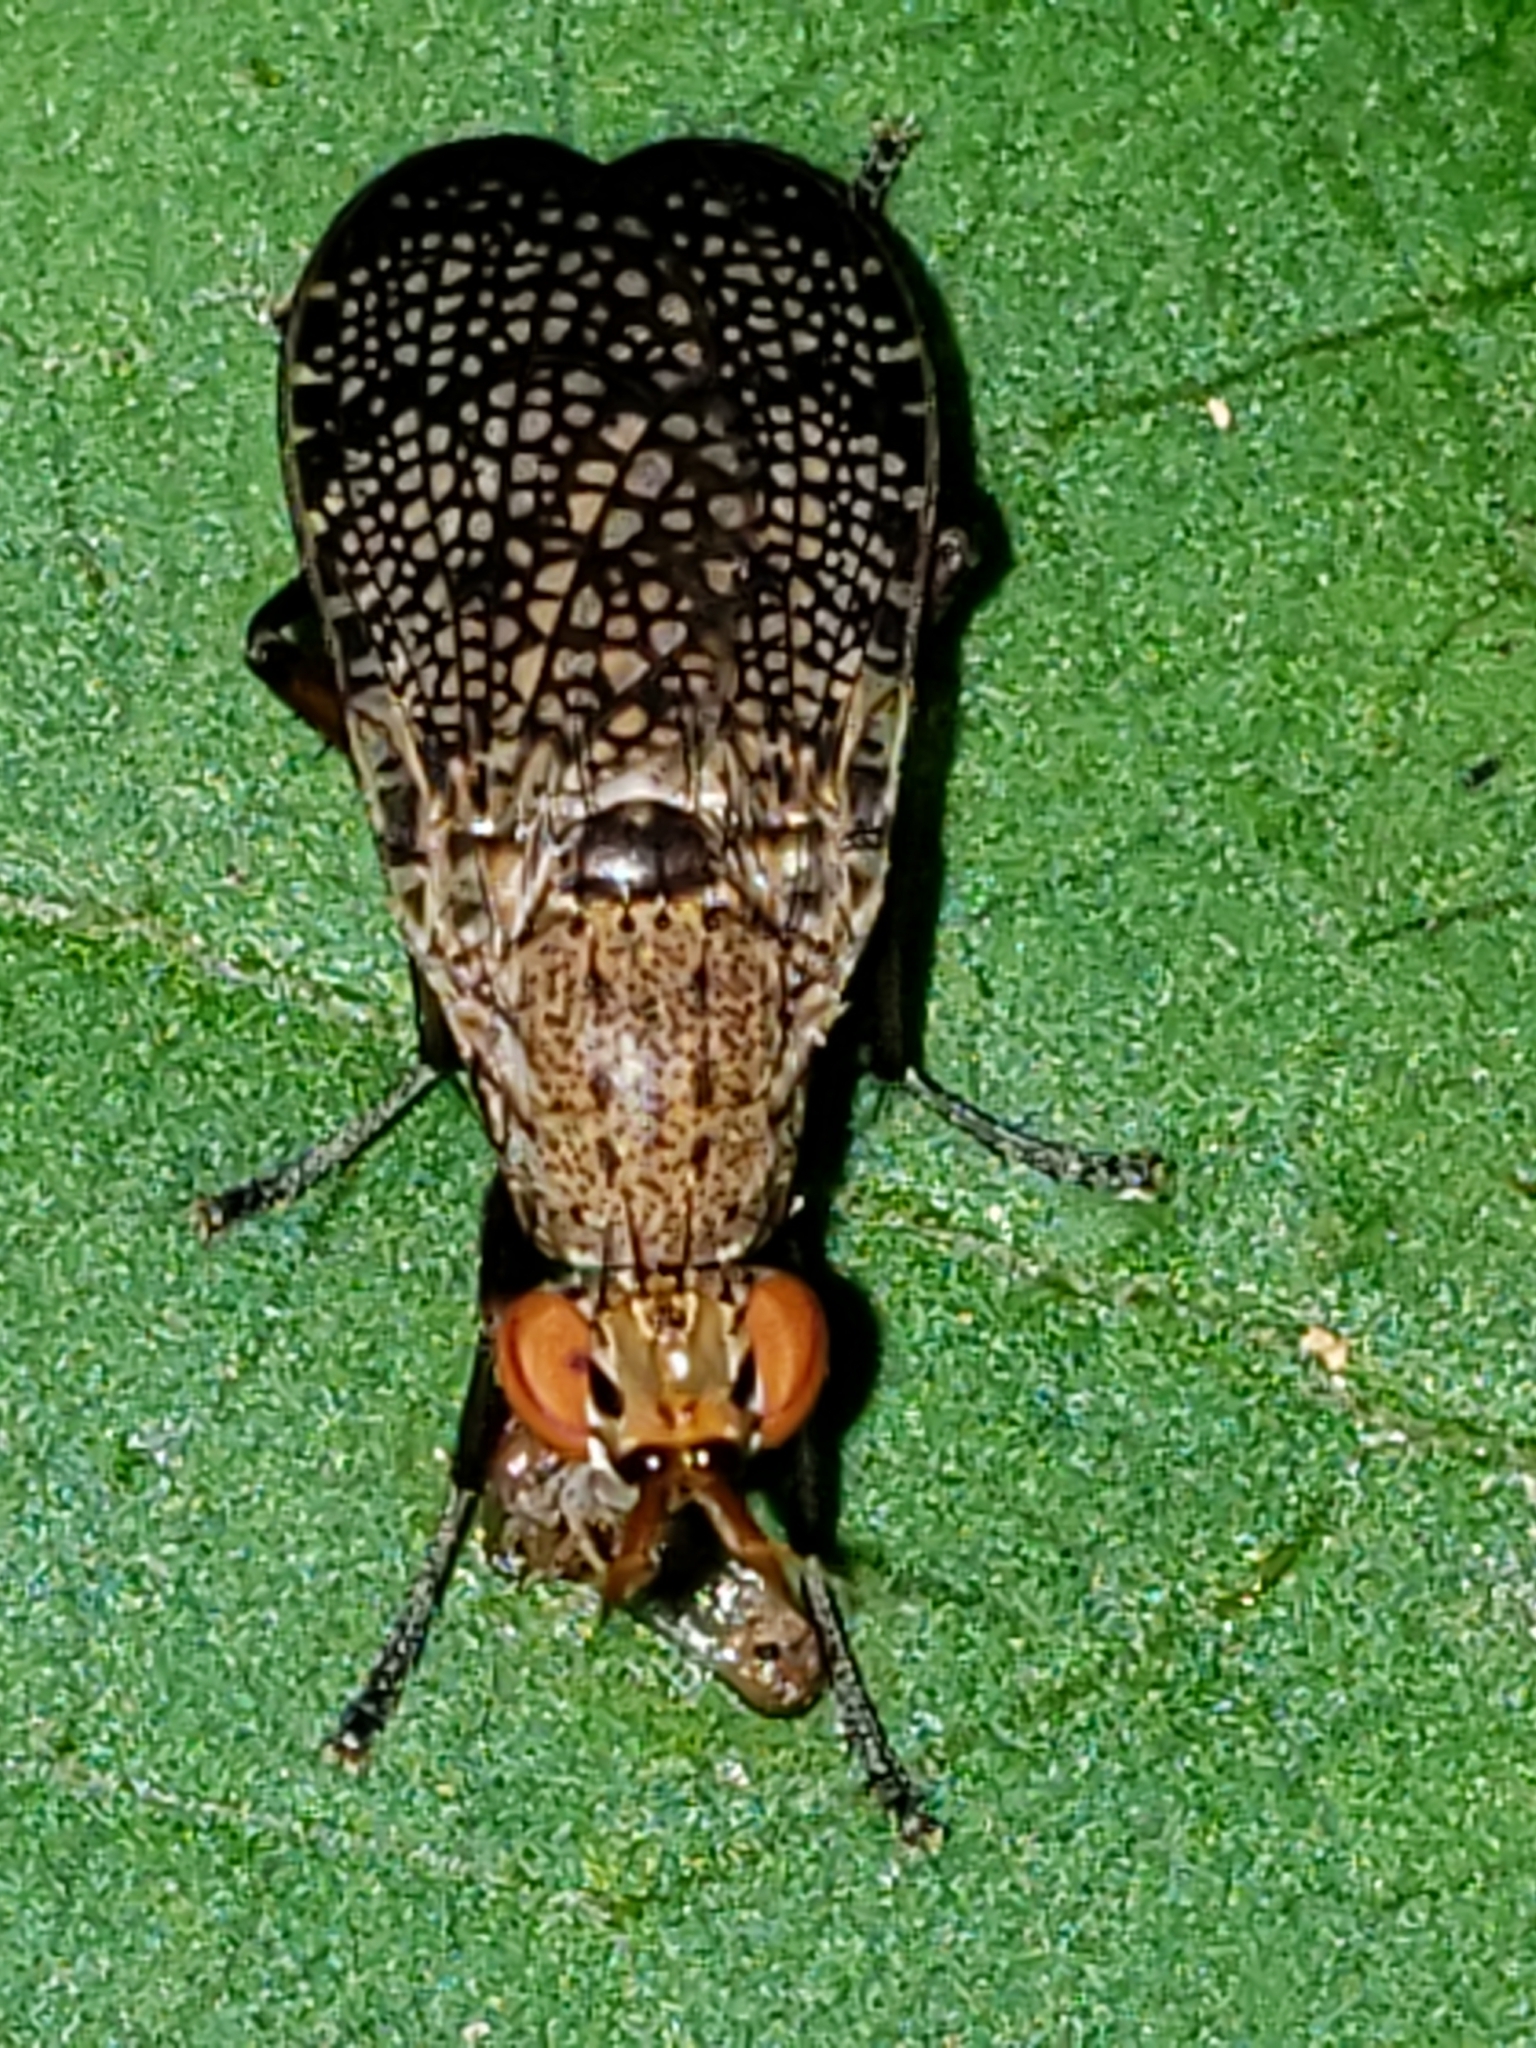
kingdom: Animalia
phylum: Arthropoda
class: Insecta
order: Diptera
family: Sciomyzidae
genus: Euthycera
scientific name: Euthycera flavescens
